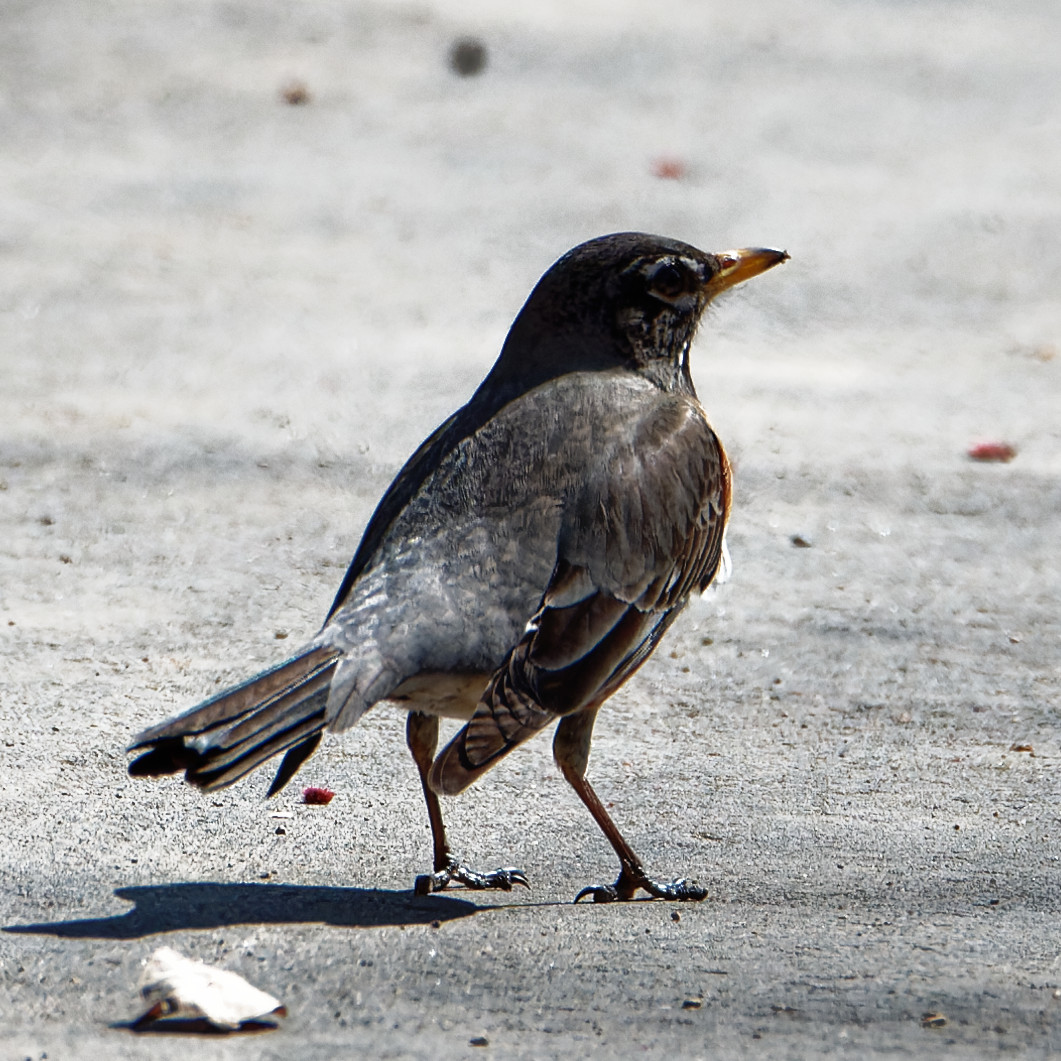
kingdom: Animalia
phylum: Chordata
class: Aves
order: Passeriformes
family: Turdidae
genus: Turdus
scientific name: Turdus migratorius
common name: American robin
